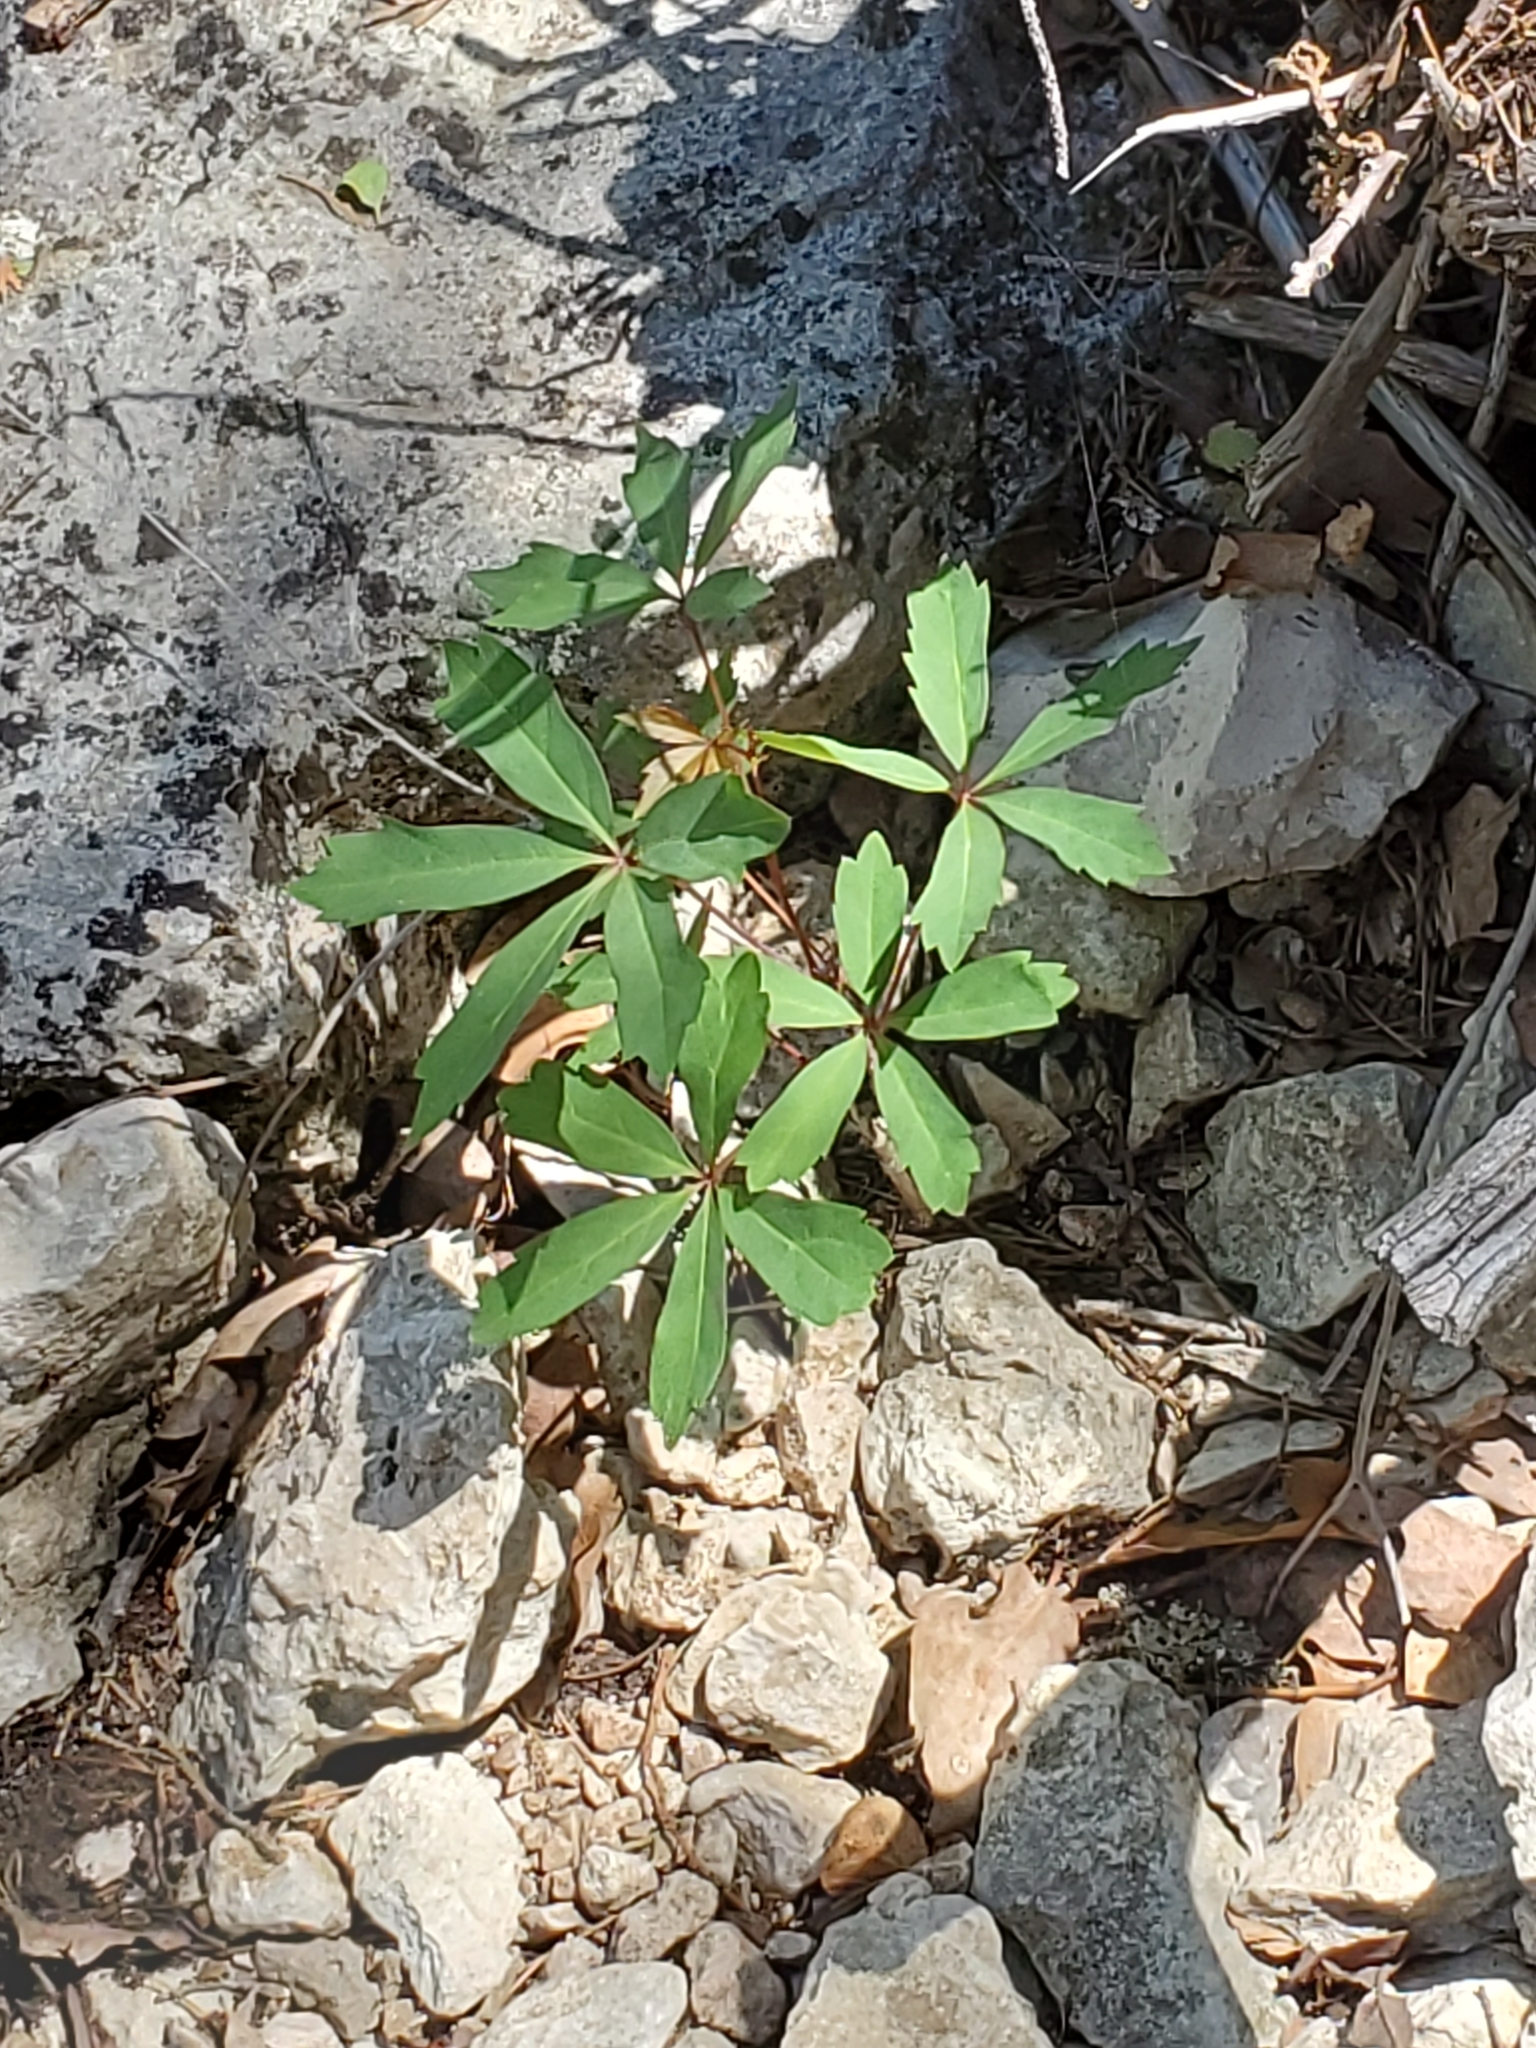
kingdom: Plantae
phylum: Tracheophyta
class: Magnoliopsida
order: Vitales
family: Vitaceae
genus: Parthenocissus
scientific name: Parthenocissus quinquefolia
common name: Virginia-creeper
